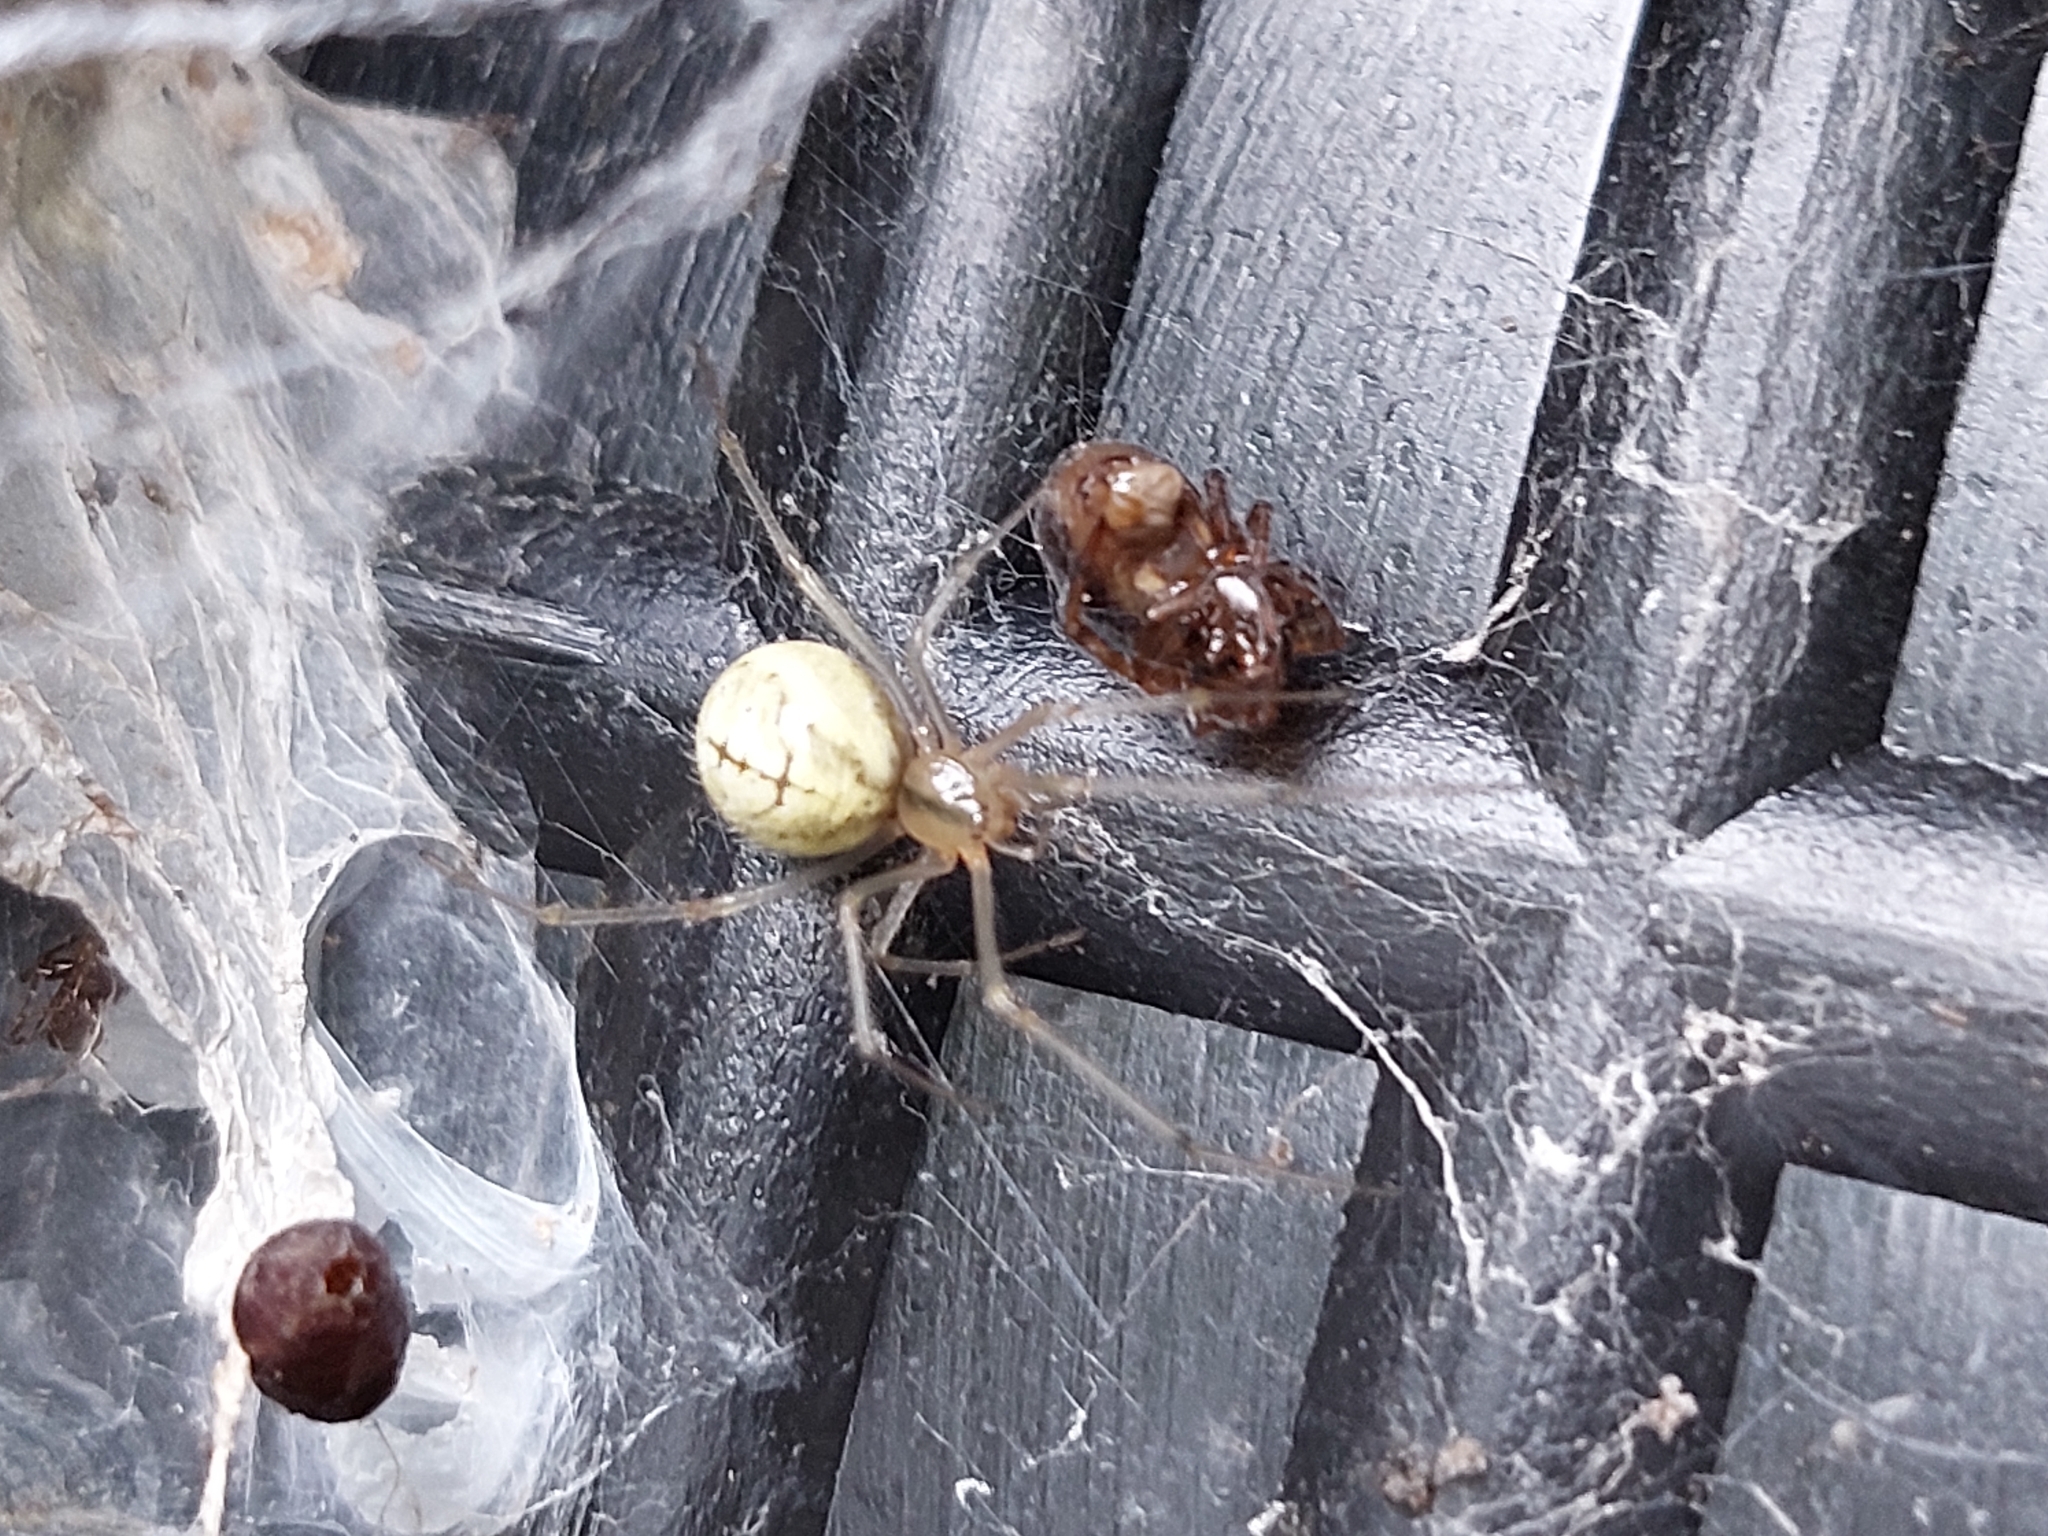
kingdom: Animalia
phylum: Arthropoda
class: Arachnida
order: Araneae
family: Theridiidae
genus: Enoplognatha
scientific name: Enoplognatha ovata
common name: Common candy-striped spider
